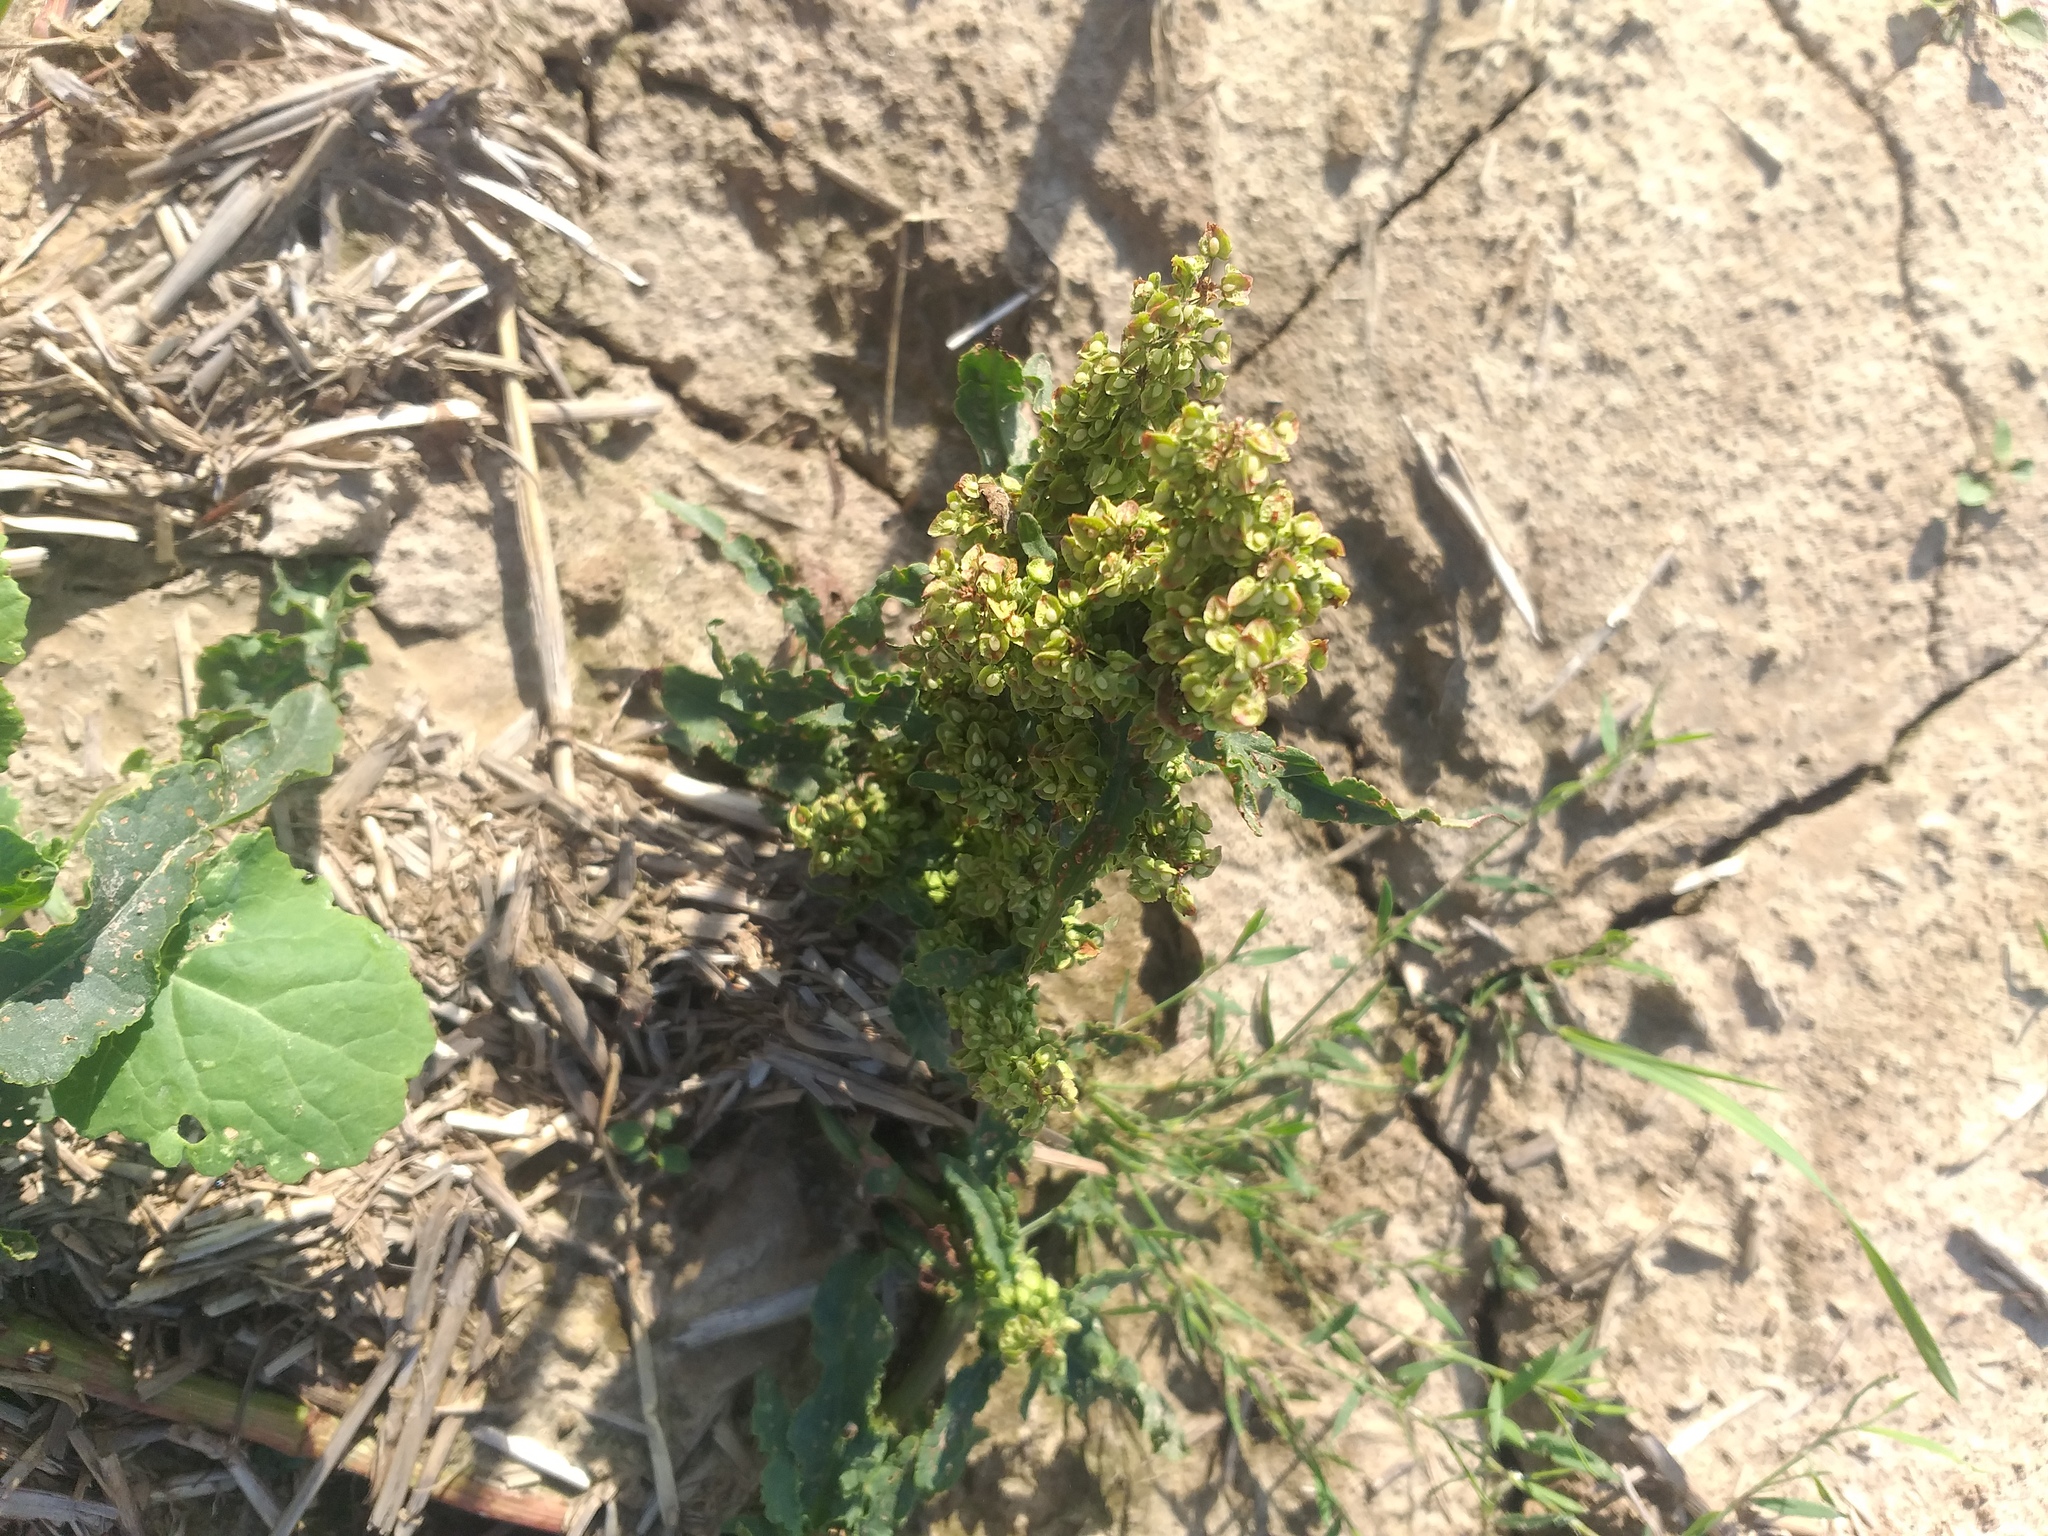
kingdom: Plantae
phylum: Tracheophyta
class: Magnoliopsida
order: Caryophyllales
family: Polygonaceae
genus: Rumex
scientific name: Rumex crispus
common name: Curled dock
